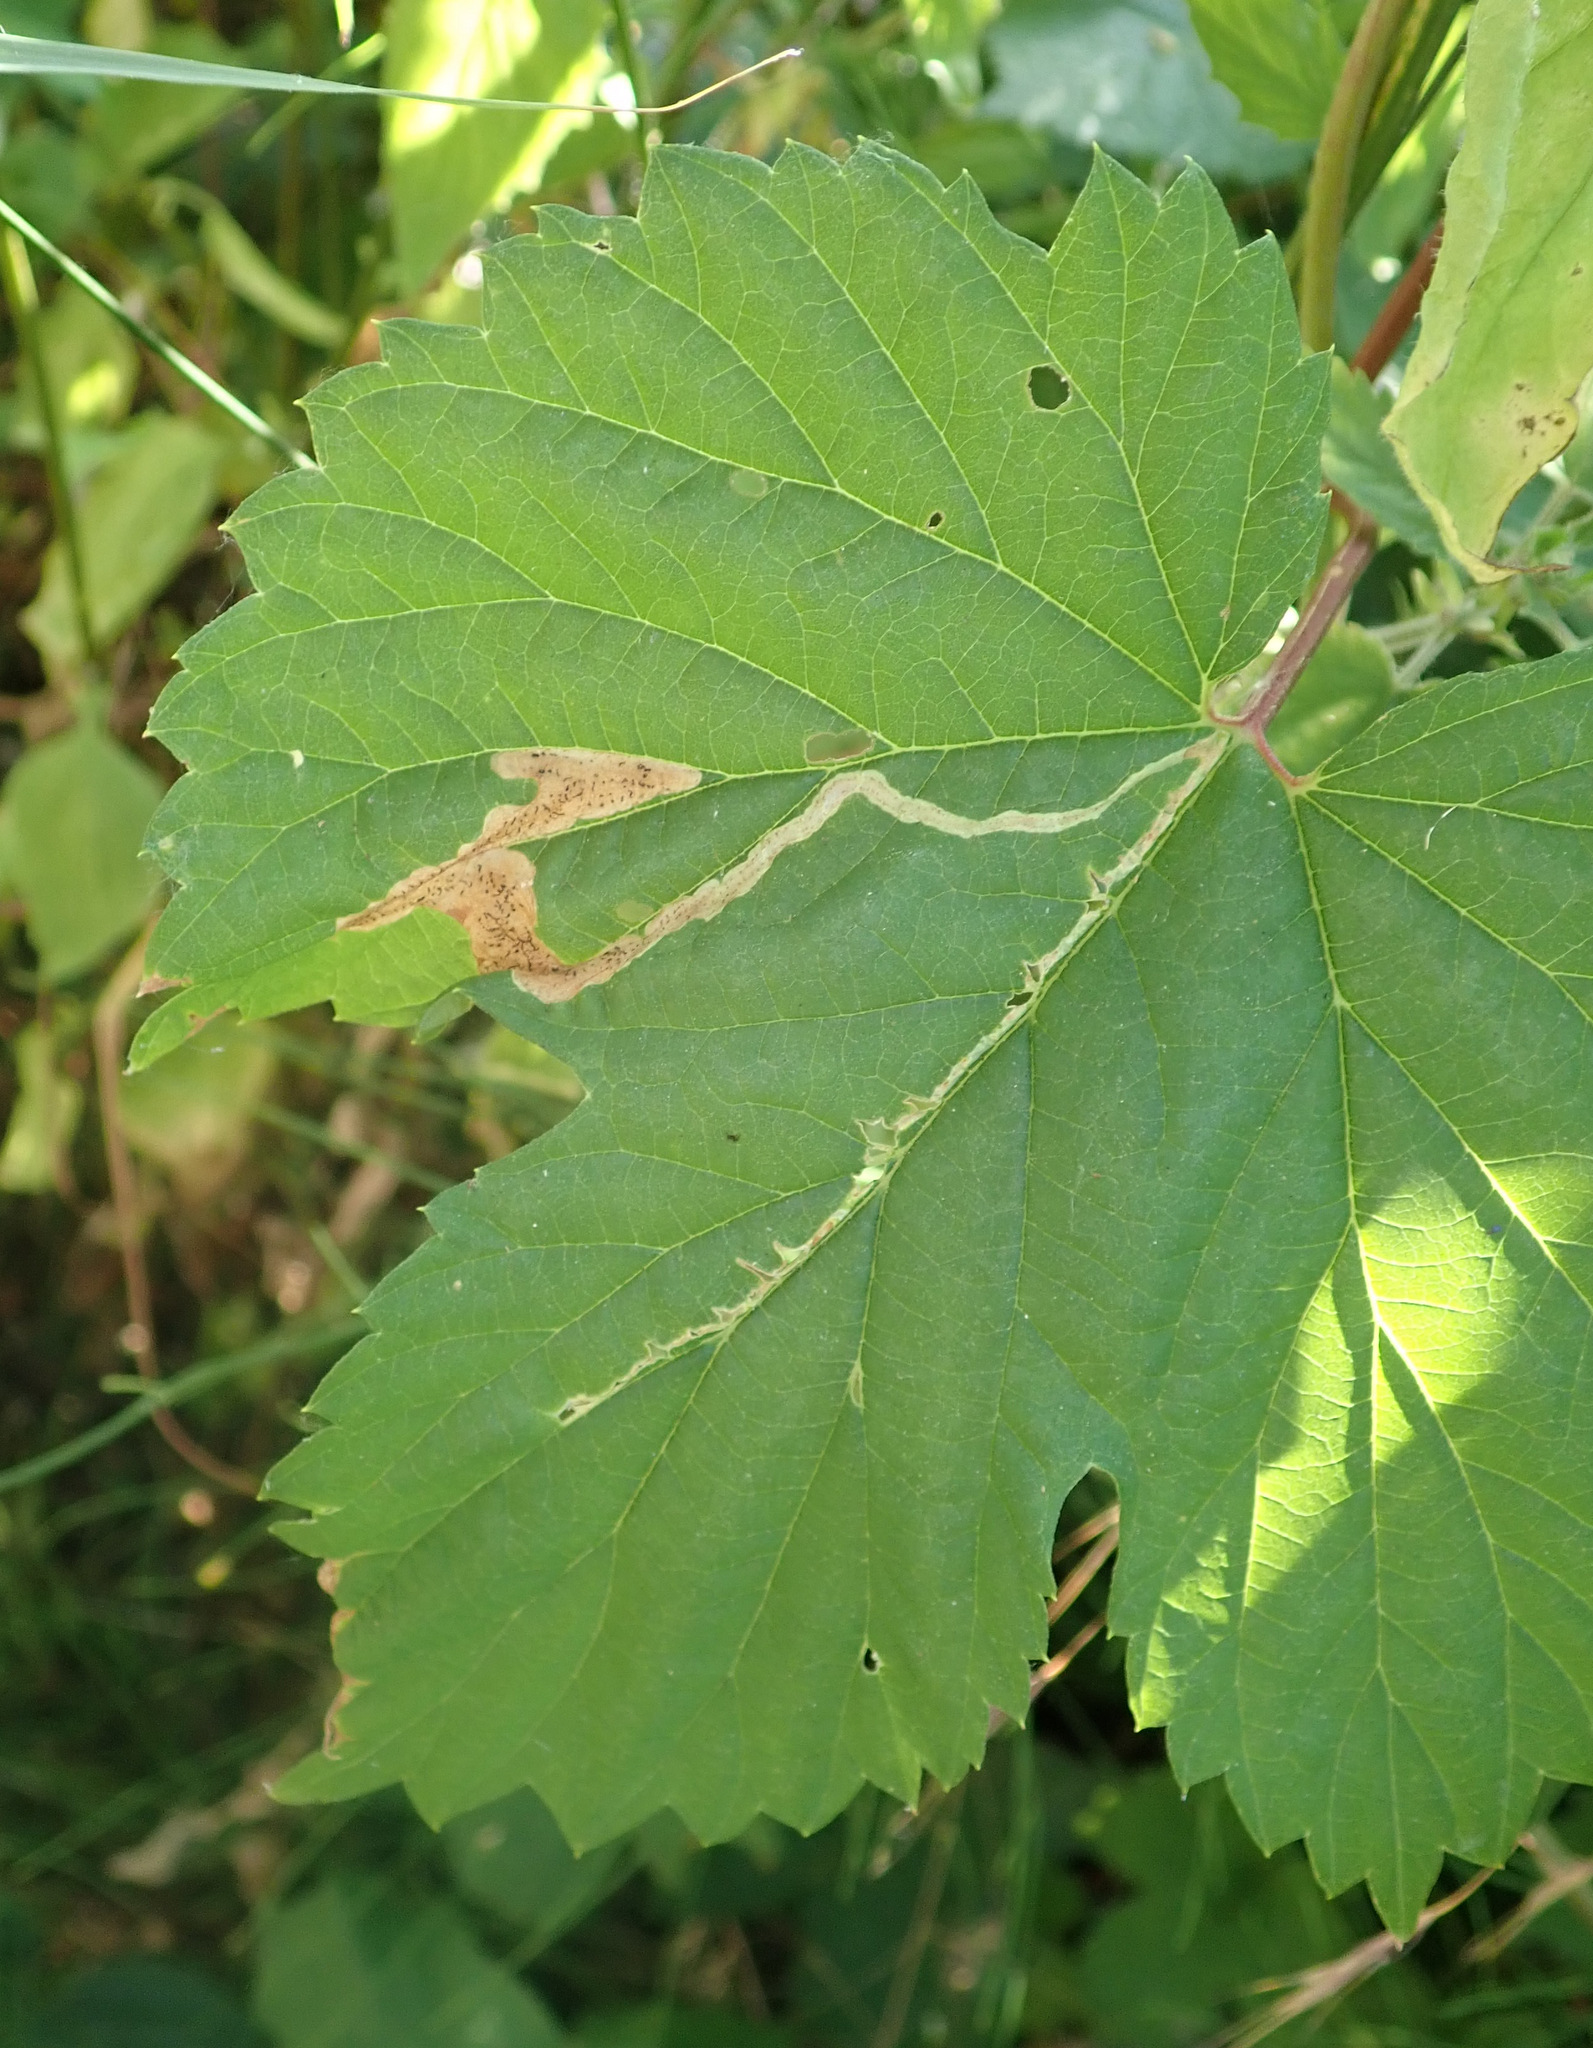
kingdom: Animalia
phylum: Arthropoda
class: Insecta
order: Diptera
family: Agromyzidae
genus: Agromyza
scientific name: Agromyza igniceps
